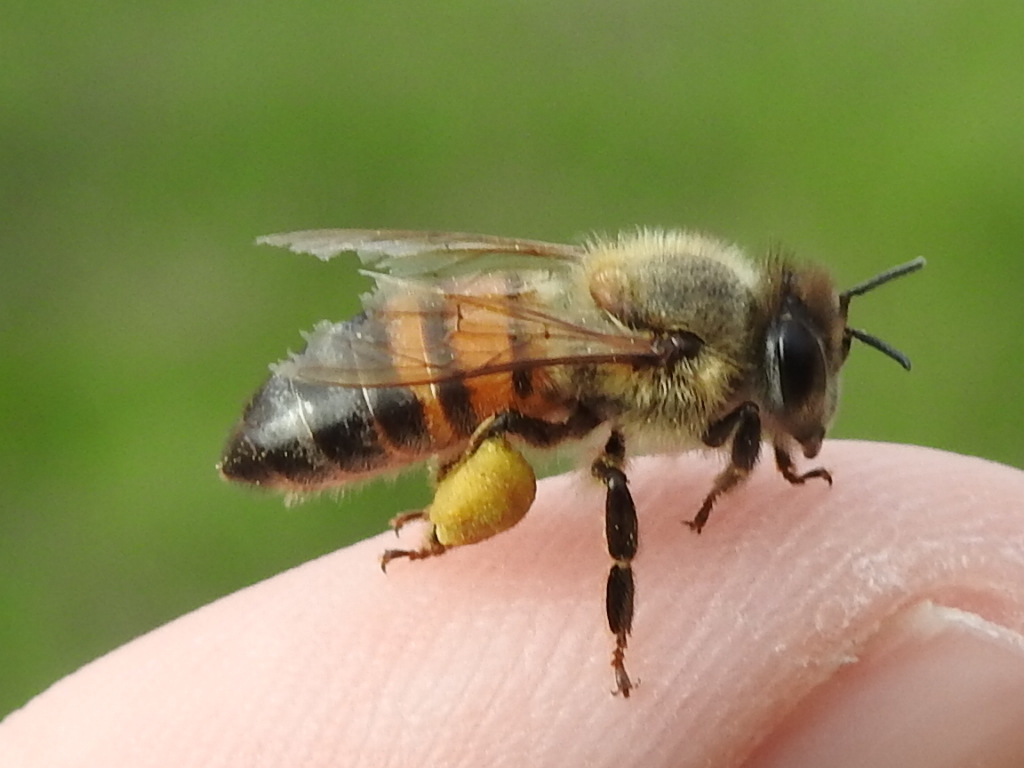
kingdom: Animalia
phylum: Arthropoda
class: Insecta
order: Hymenoptera
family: Apidae
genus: Apis
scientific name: Apis mellifera
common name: Honey bee
